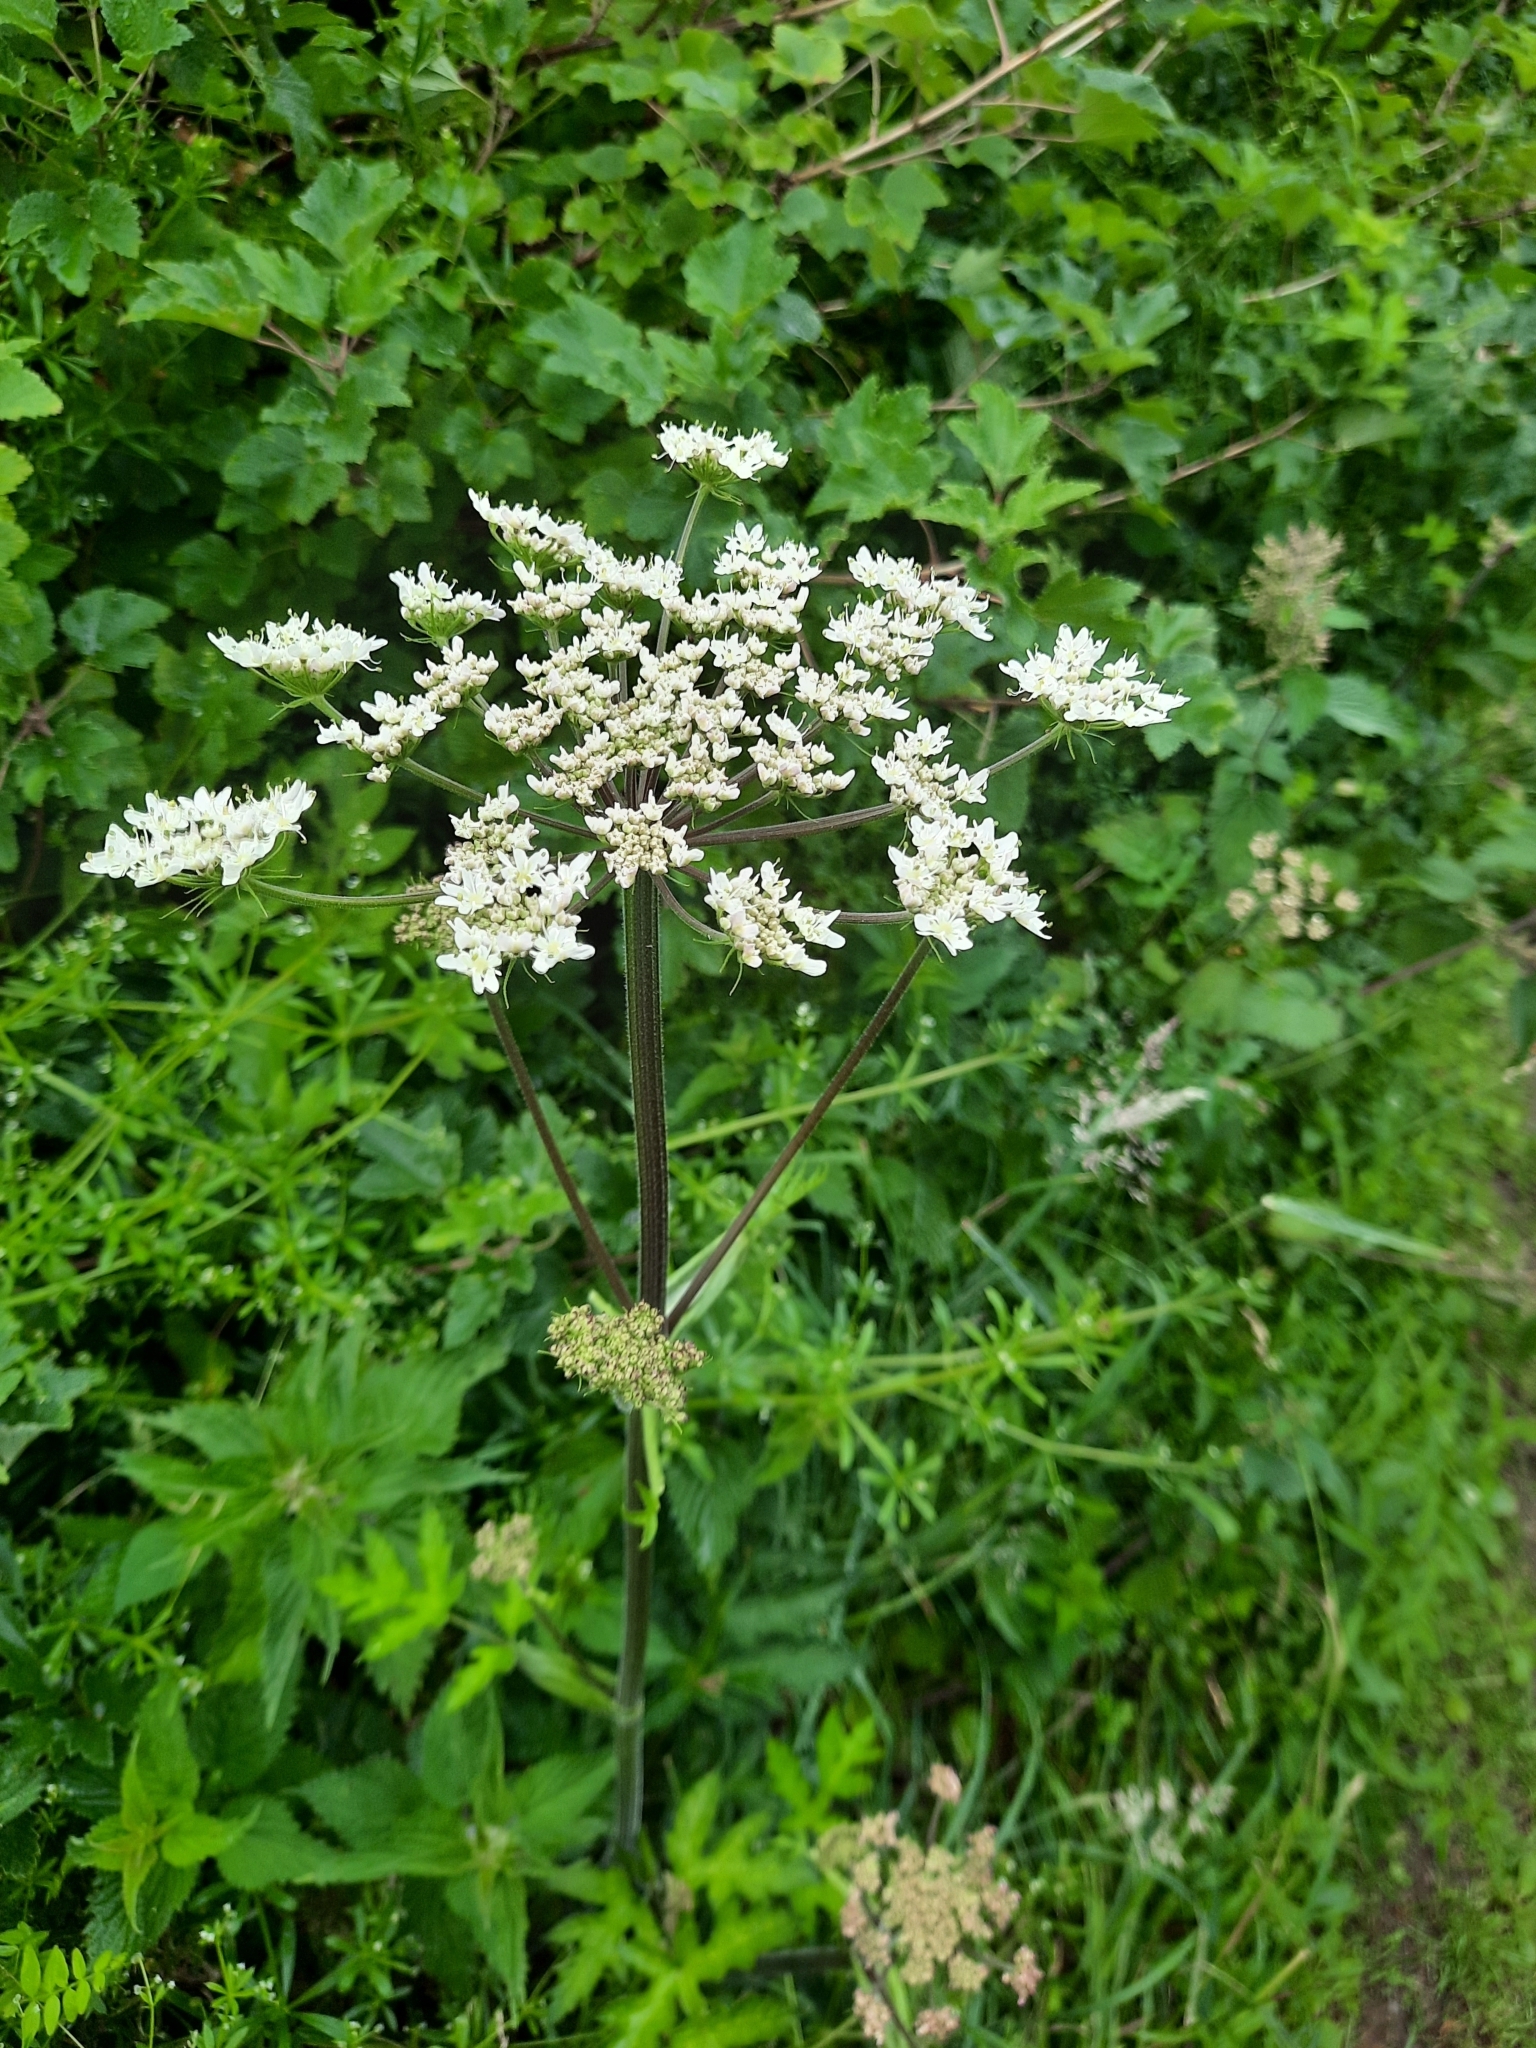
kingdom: Plantae
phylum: Tracheophyta
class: Magnoliopsida
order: Apiales
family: Apiaceae
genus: Heracleum
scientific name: Heracleum sphondylium
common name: Hogweed
